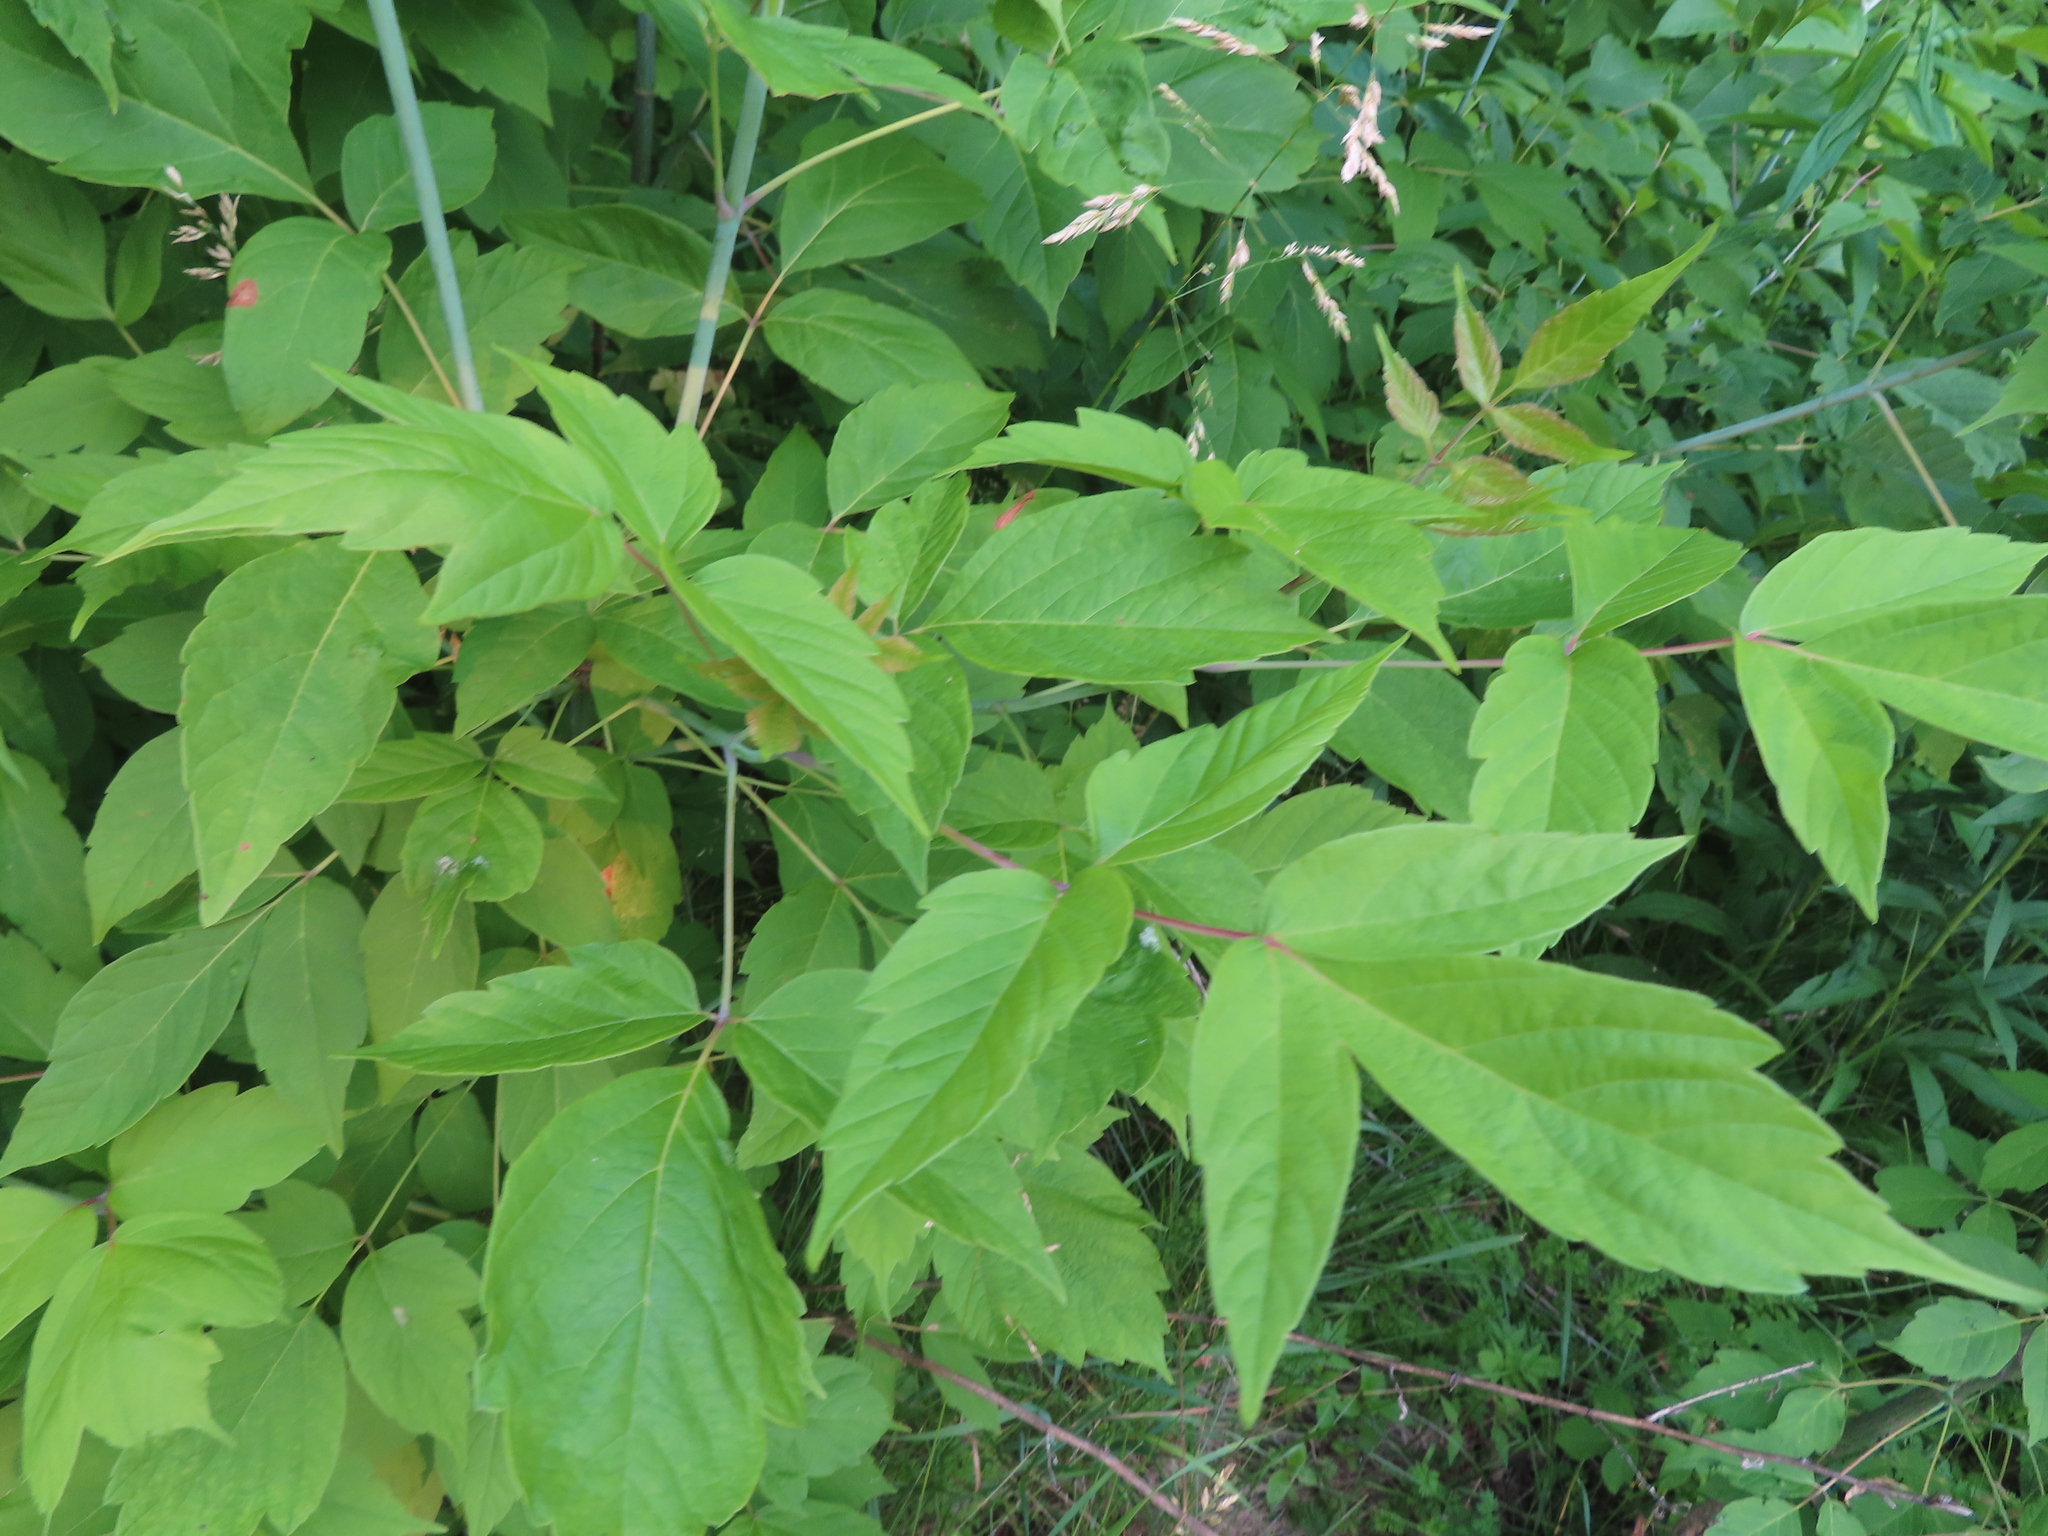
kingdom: Plantae
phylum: Tracheophyta
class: Magnoliopsida
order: Sapindales
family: Sapindaceae
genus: Acer
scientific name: Acer negundo
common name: Ashleaf maple
